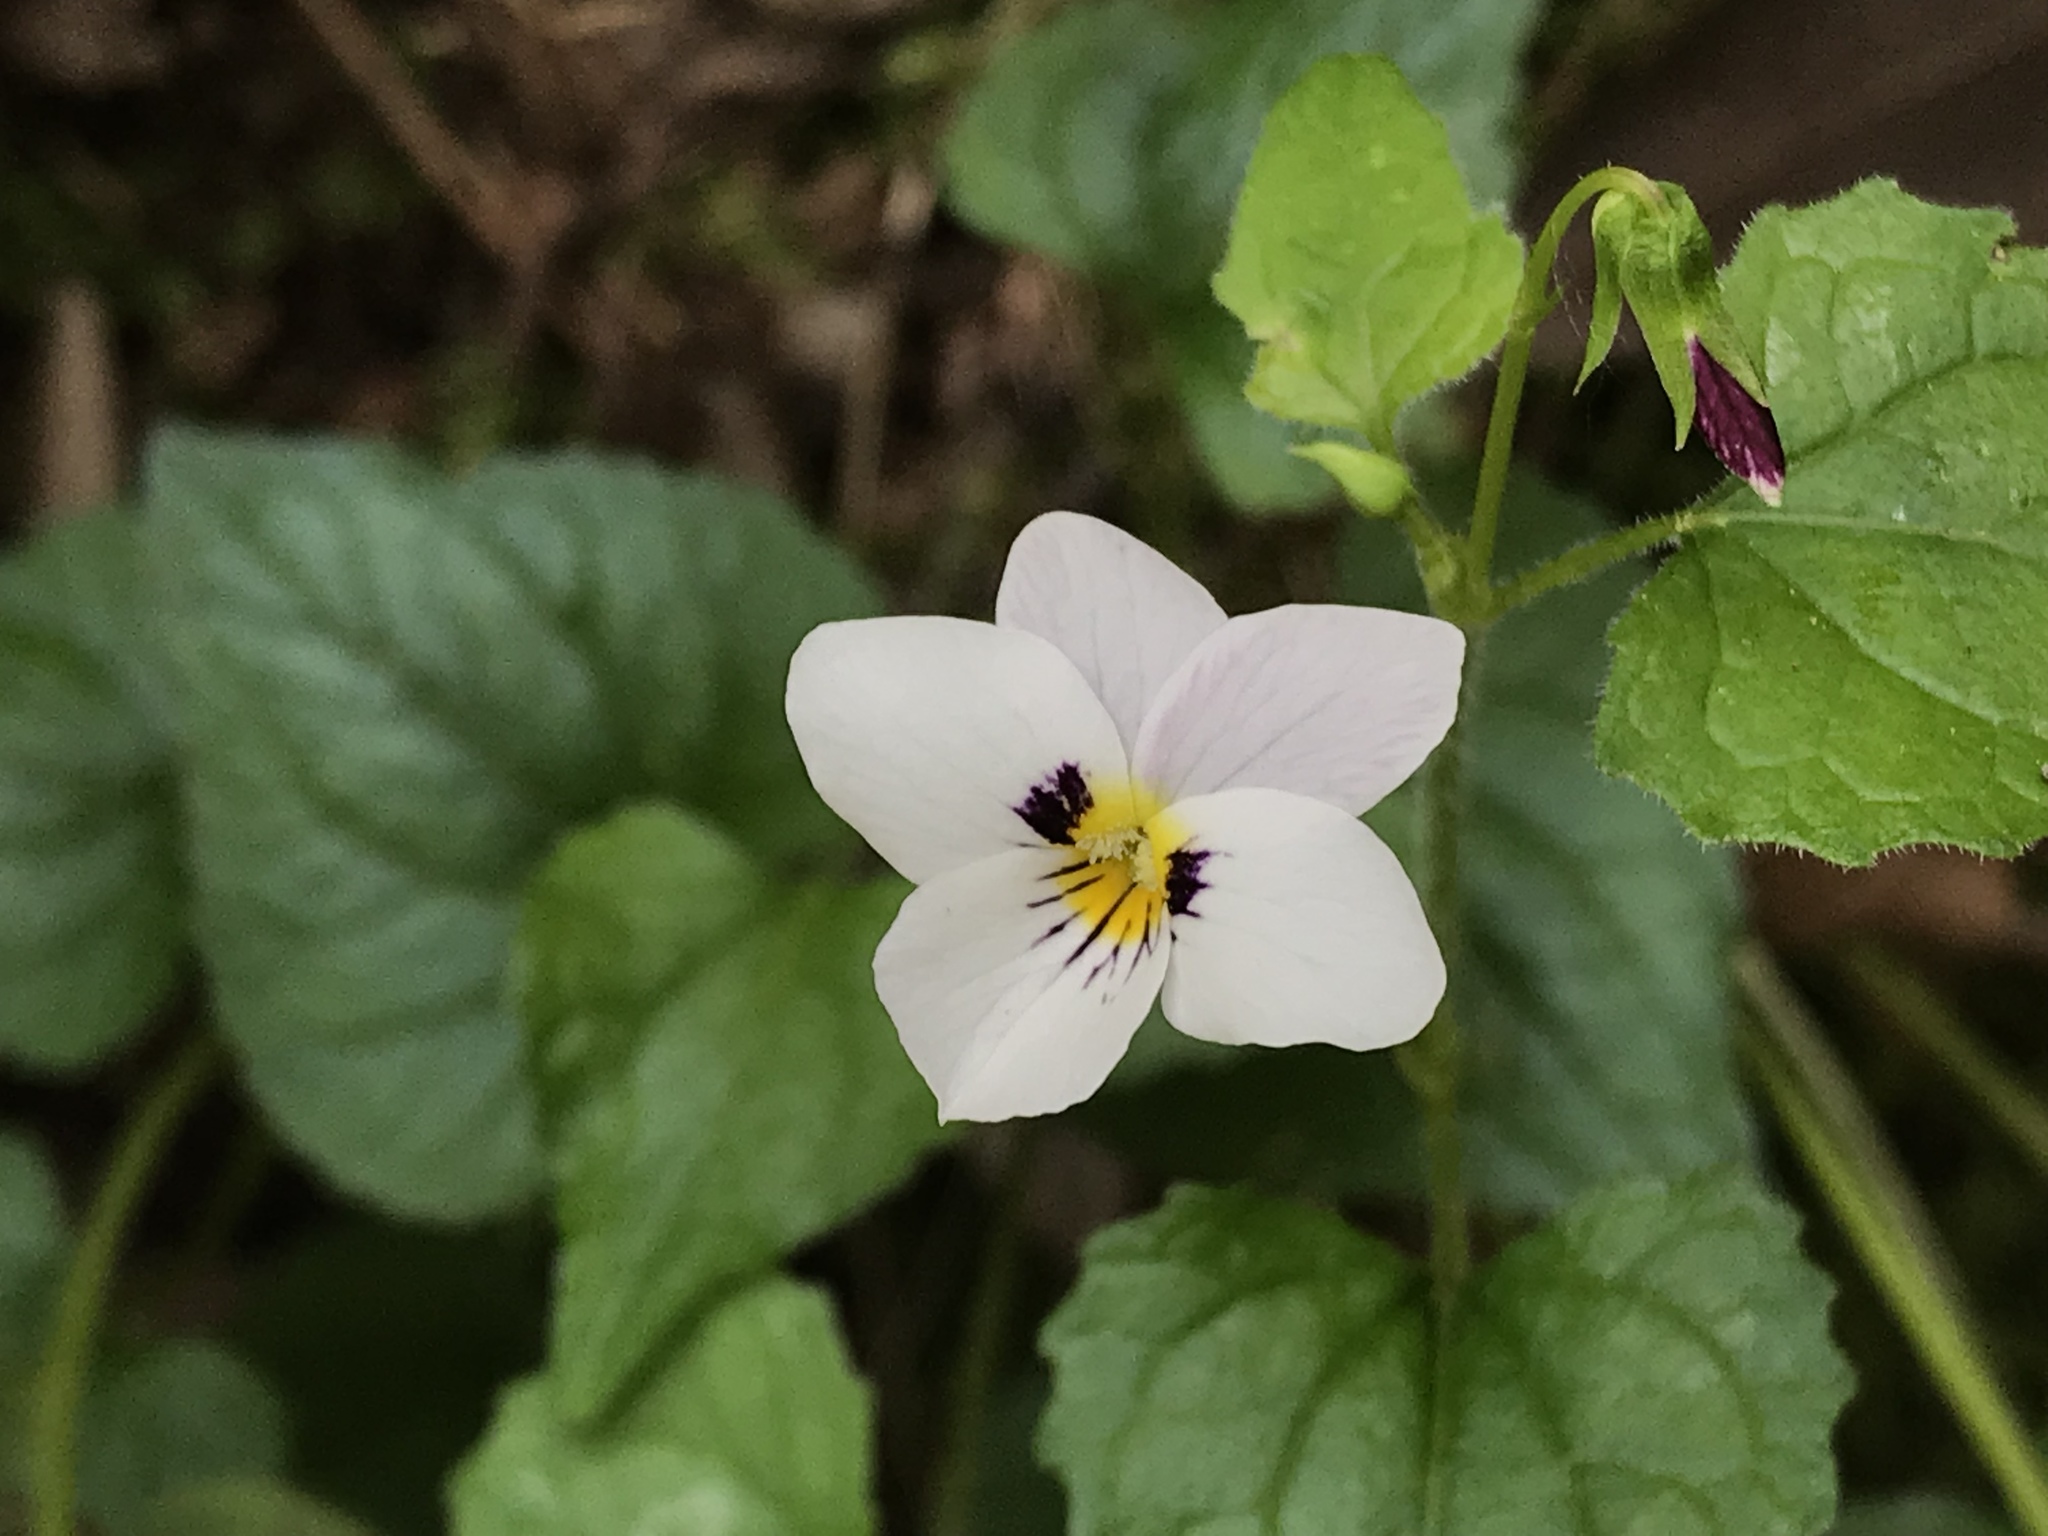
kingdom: Plantae
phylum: Tracheophyta
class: Magnoliopsida
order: Malpighiales
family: Violaceae
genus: Viola
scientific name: Viola ocellata
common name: Western heart's ease
